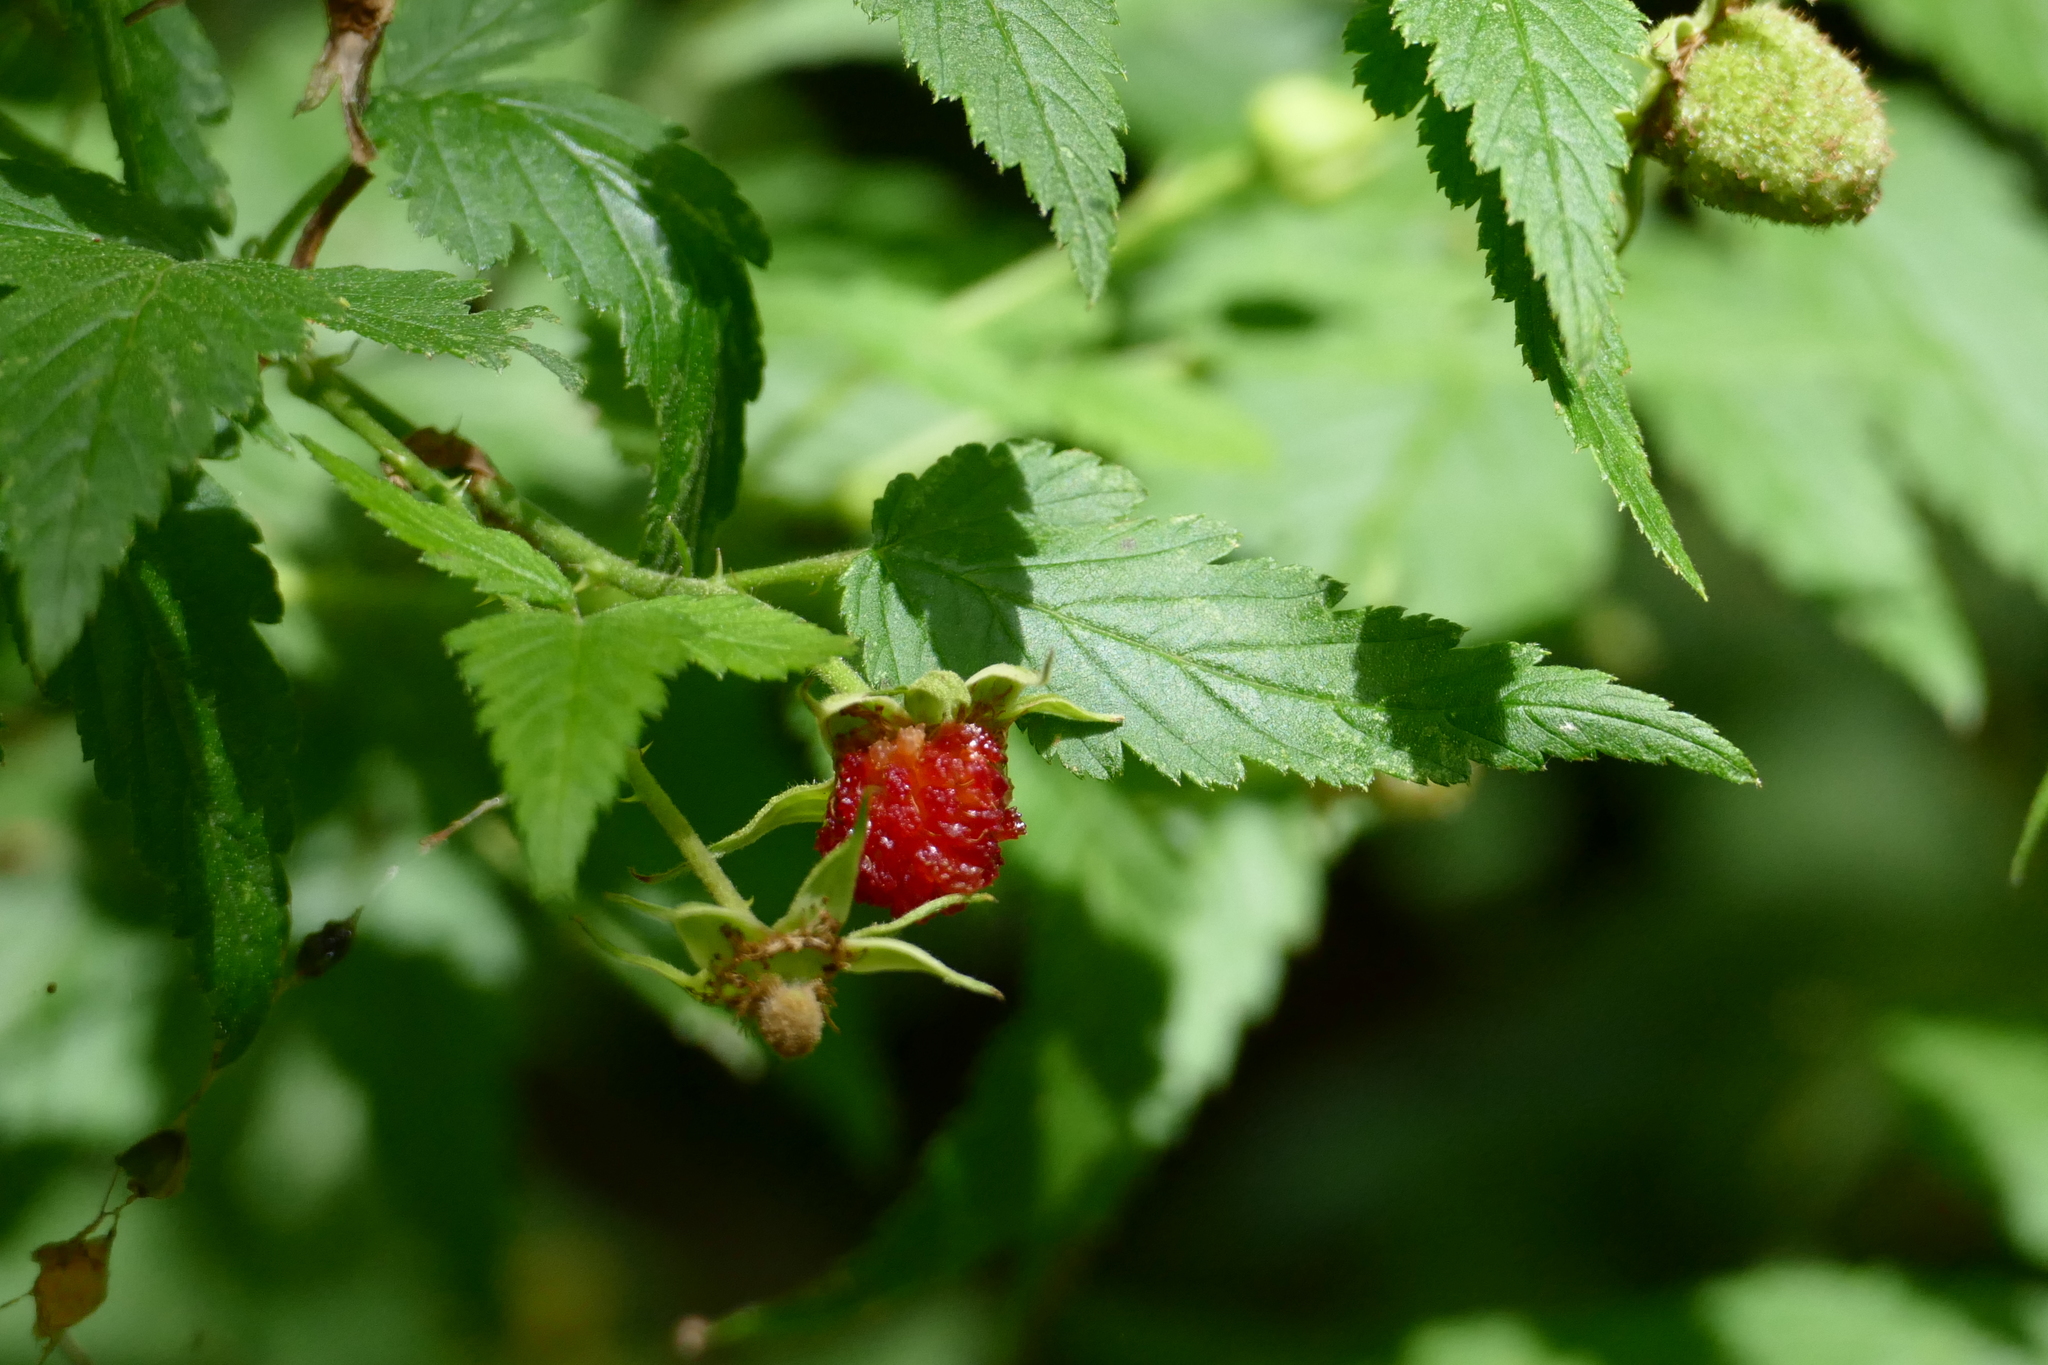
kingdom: Plantae
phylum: Tracheophyta
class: Magnoliopsida
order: Rosales
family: Rosaceae
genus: Rubus
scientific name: Rubus rosifolius
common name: Roseleaf raspberry
